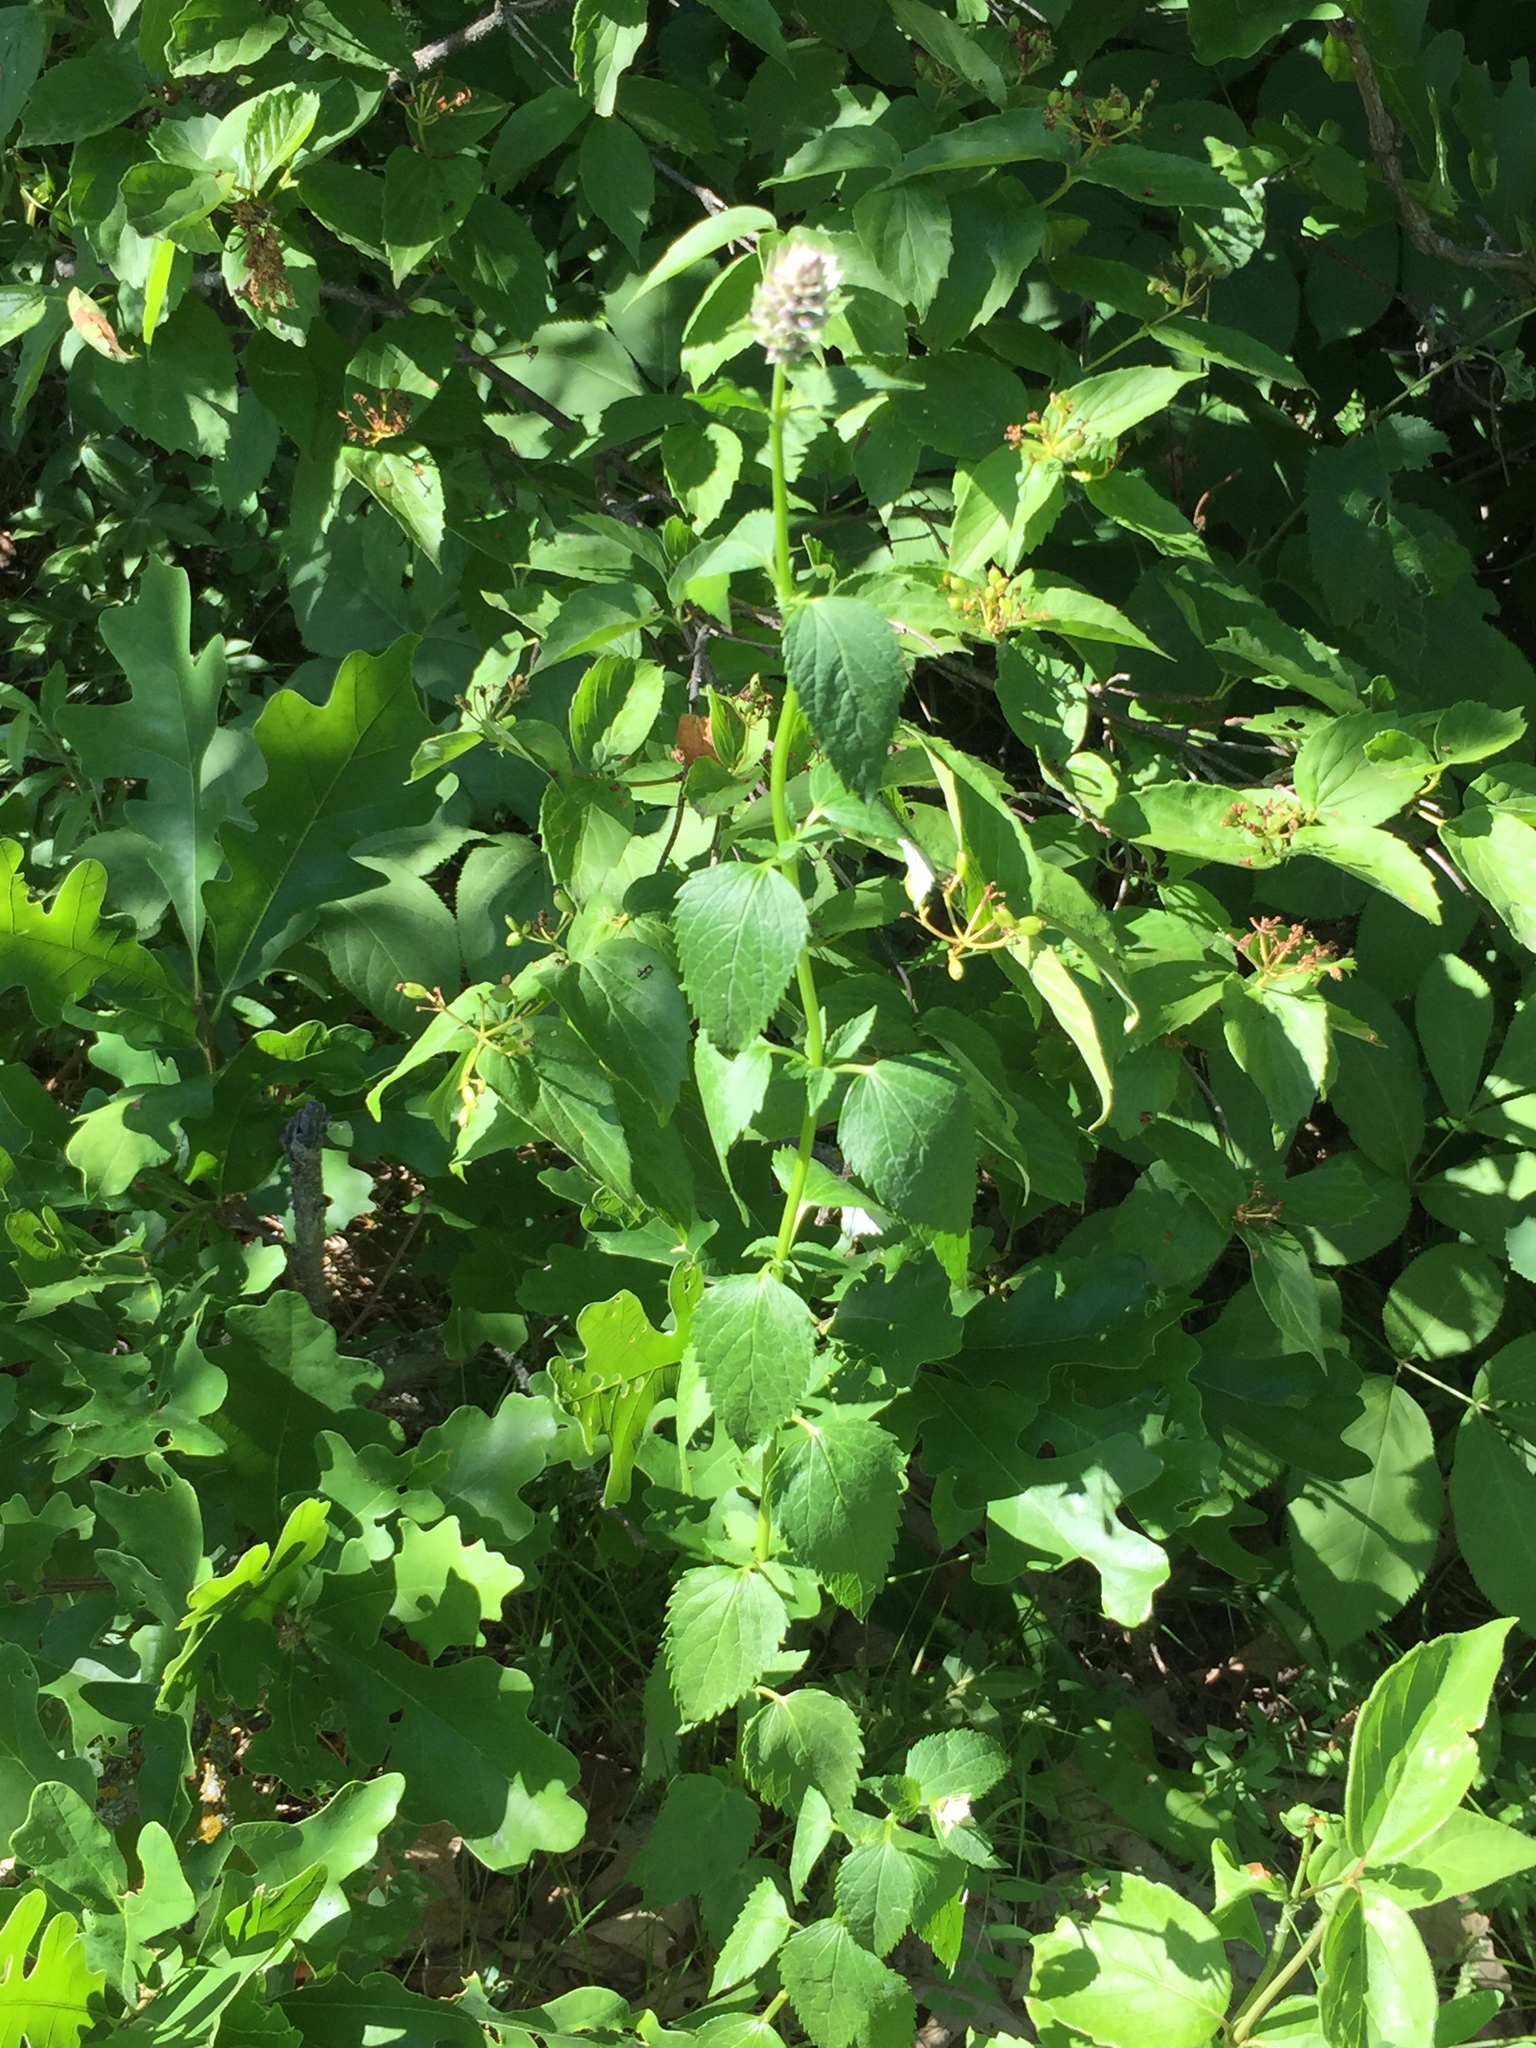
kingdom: Plantae
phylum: Tracheophyta
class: Magnoliopsida
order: Lamiales
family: Lamiaceae
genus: Agastache
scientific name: Agastache foeniculum
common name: Anise hyssop
